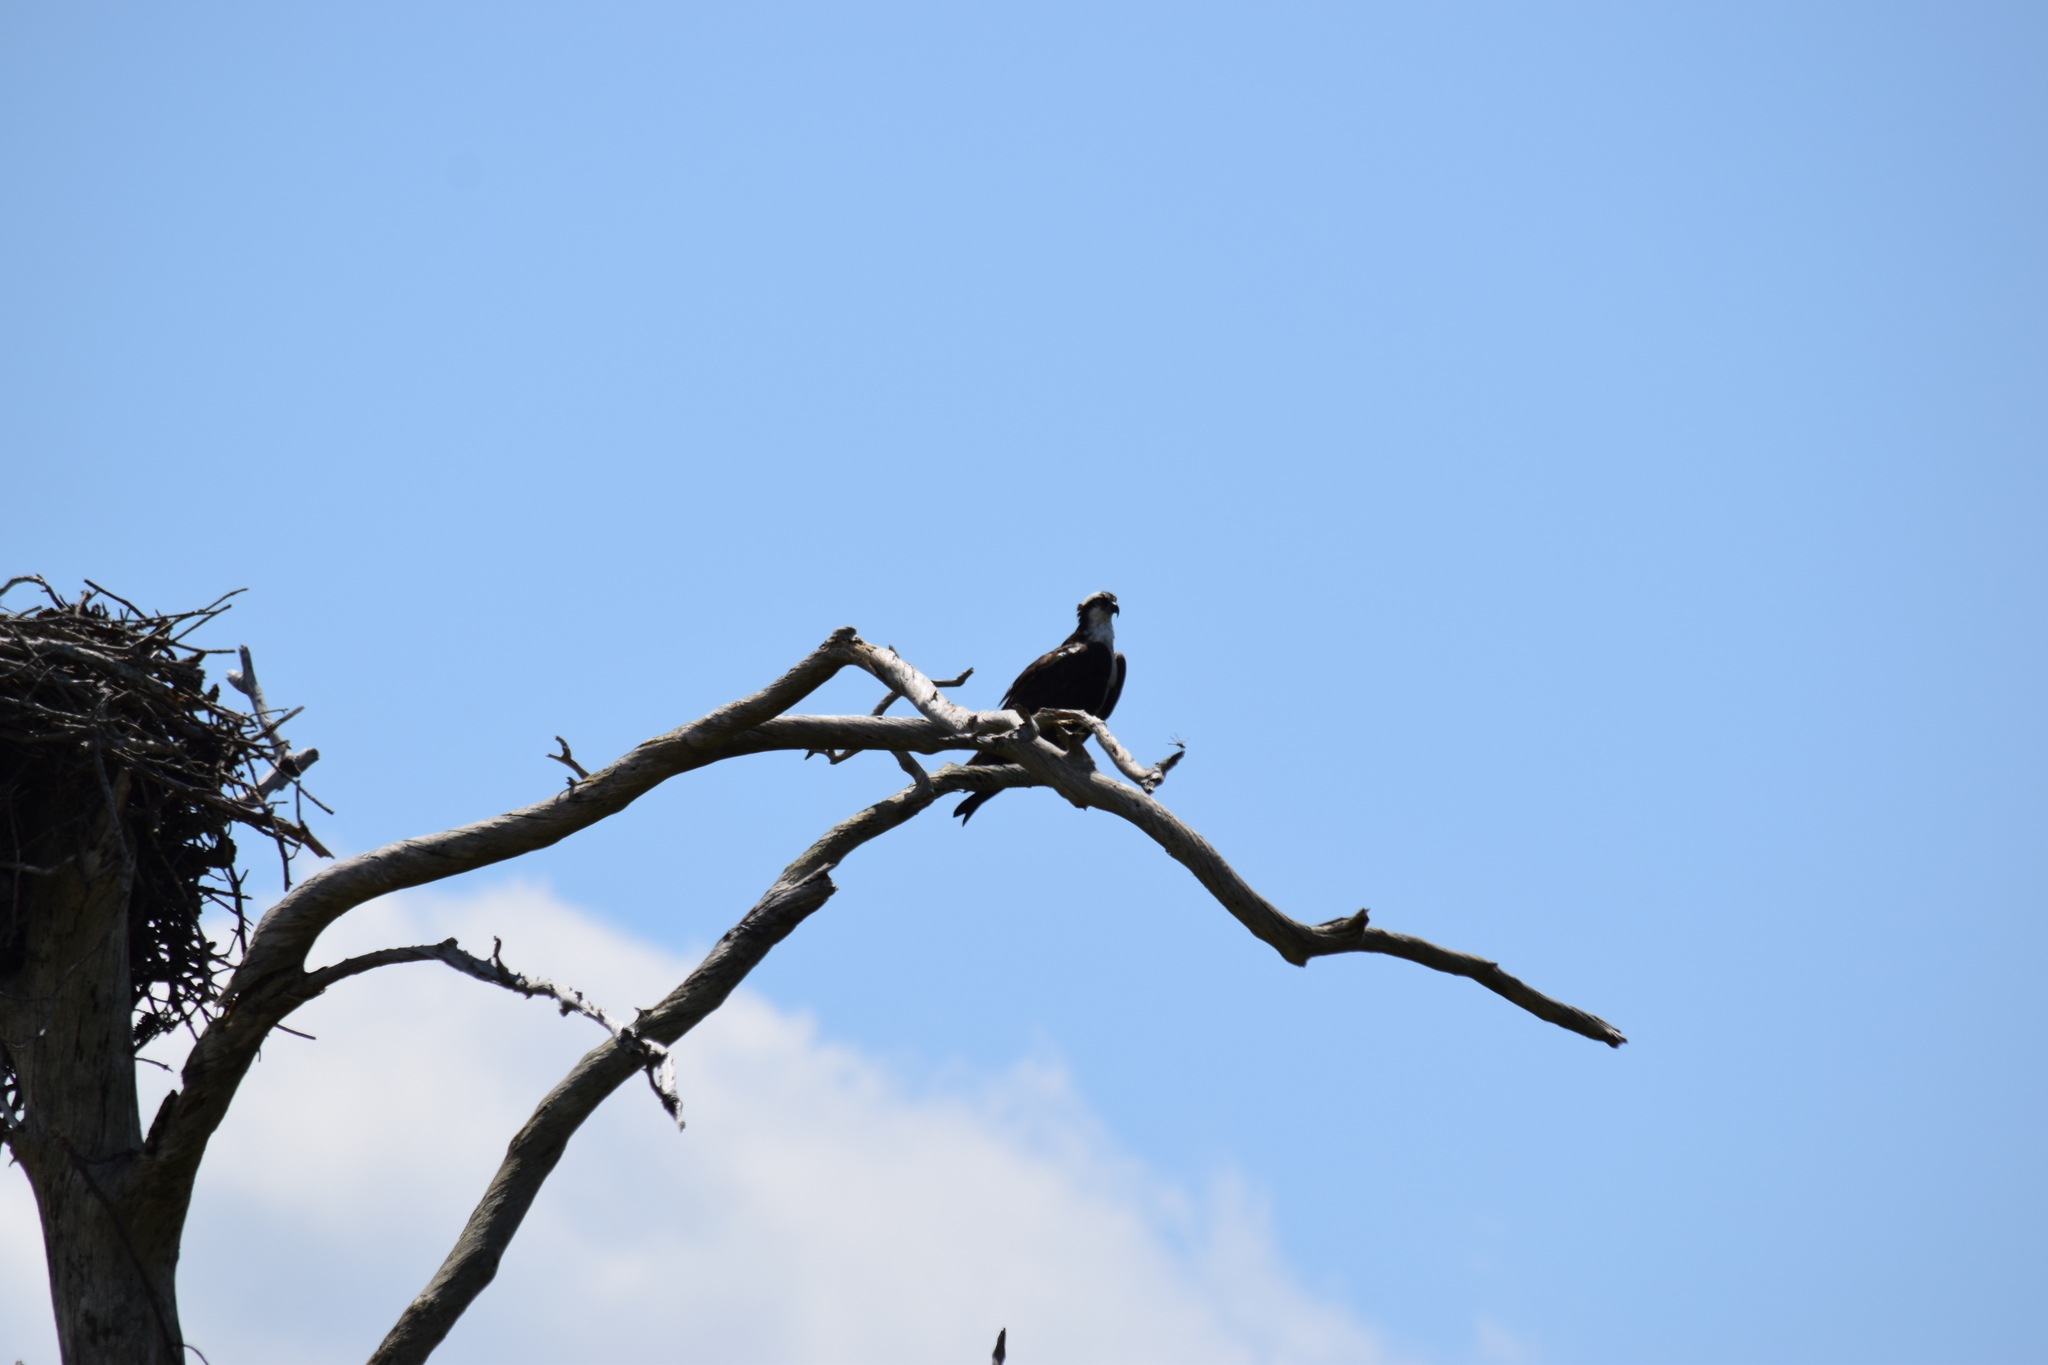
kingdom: Animalia
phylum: Chordata
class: Aves
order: Accipitriformes
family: Pandionidae
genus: Pandion
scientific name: Pandion haliaetus
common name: Osprey
